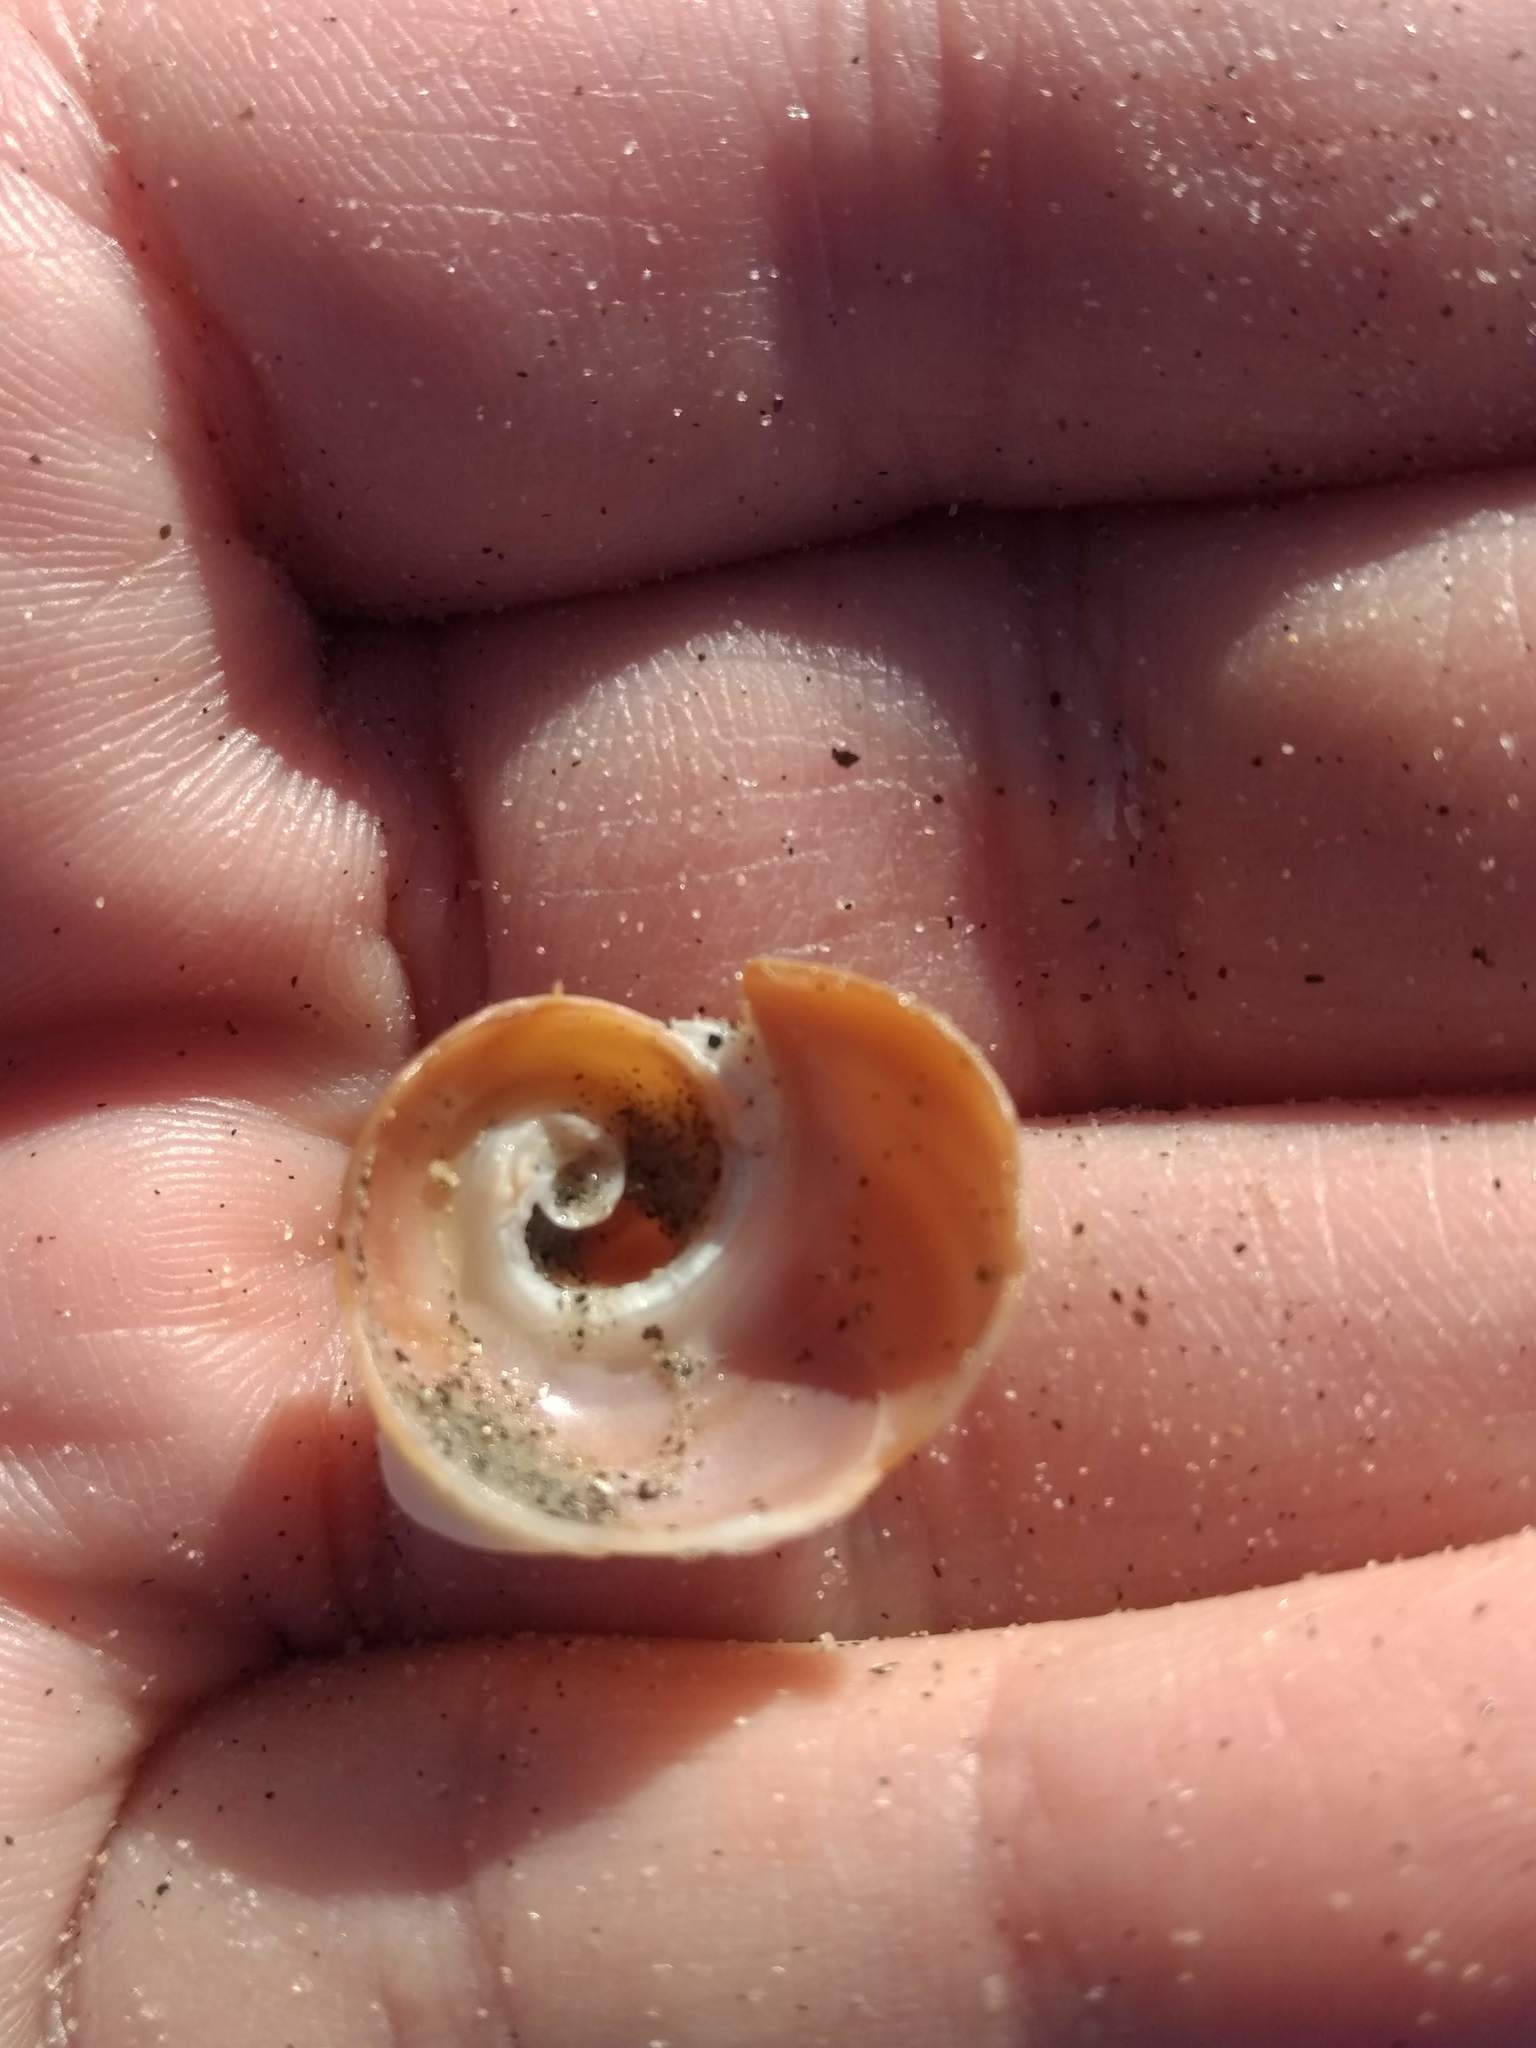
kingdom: Animalia
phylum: Mollusca
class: Gastropoda
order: Littorinimorpha
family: Naticidae
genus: Glossaulax
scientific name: Glossaulax reclusiana
